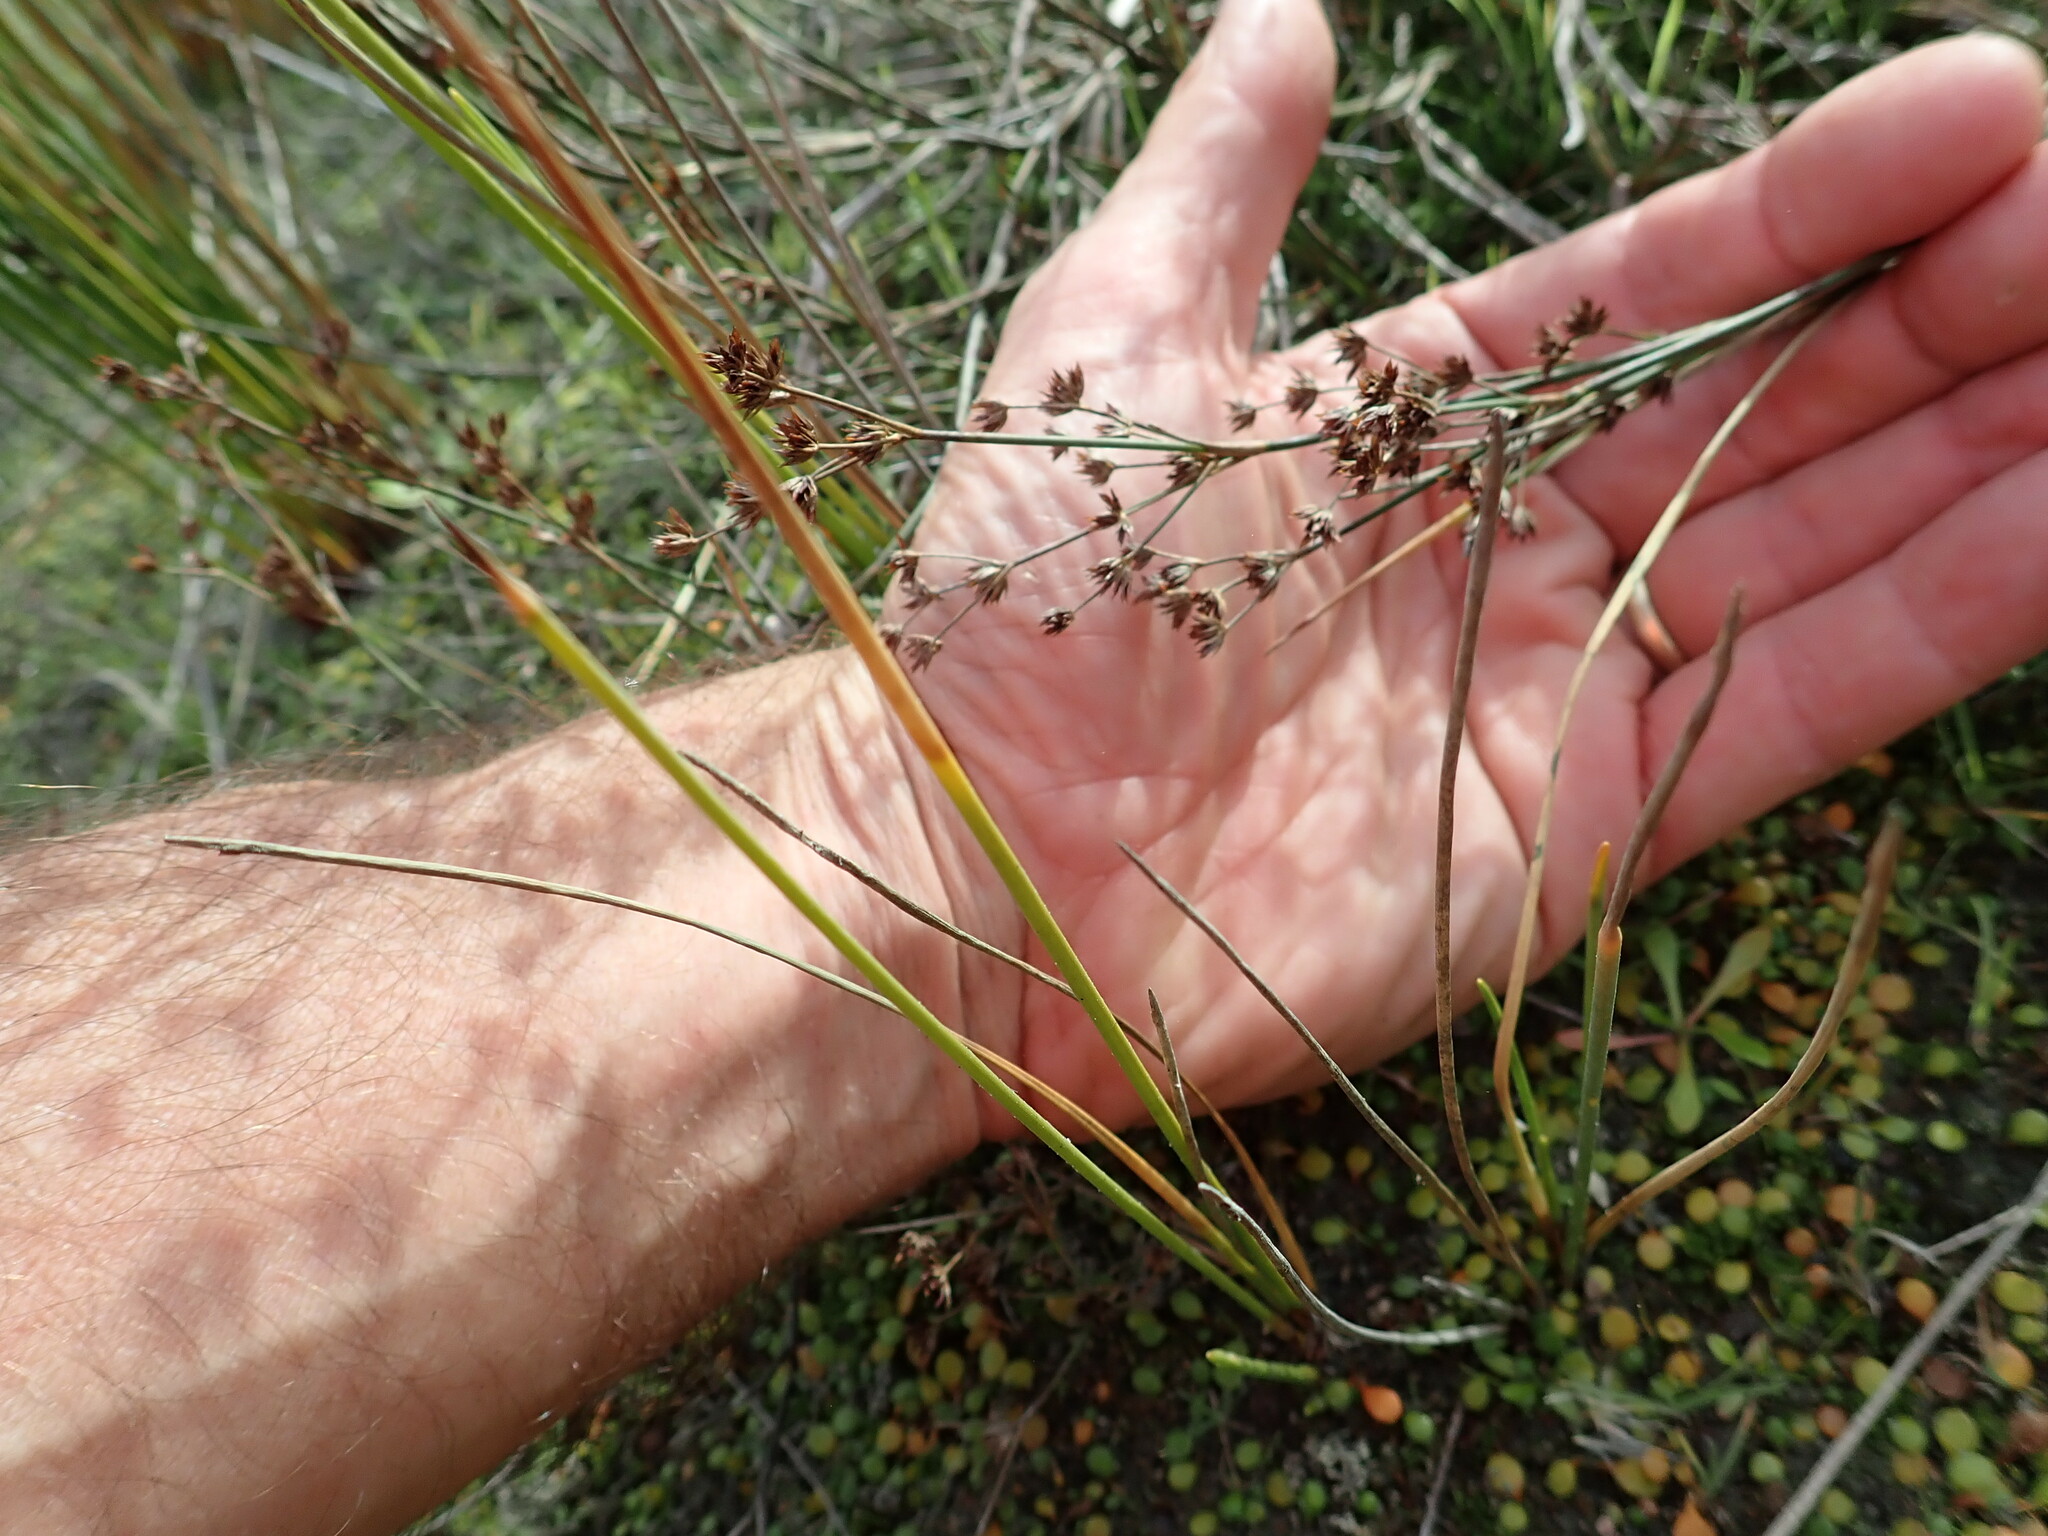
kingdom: Plantae
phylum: Tracheophyta
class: Liliopsida
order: Poales
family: Juncaceae
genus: Juncus
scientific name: Juncus articulatus
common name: Jointed rush
